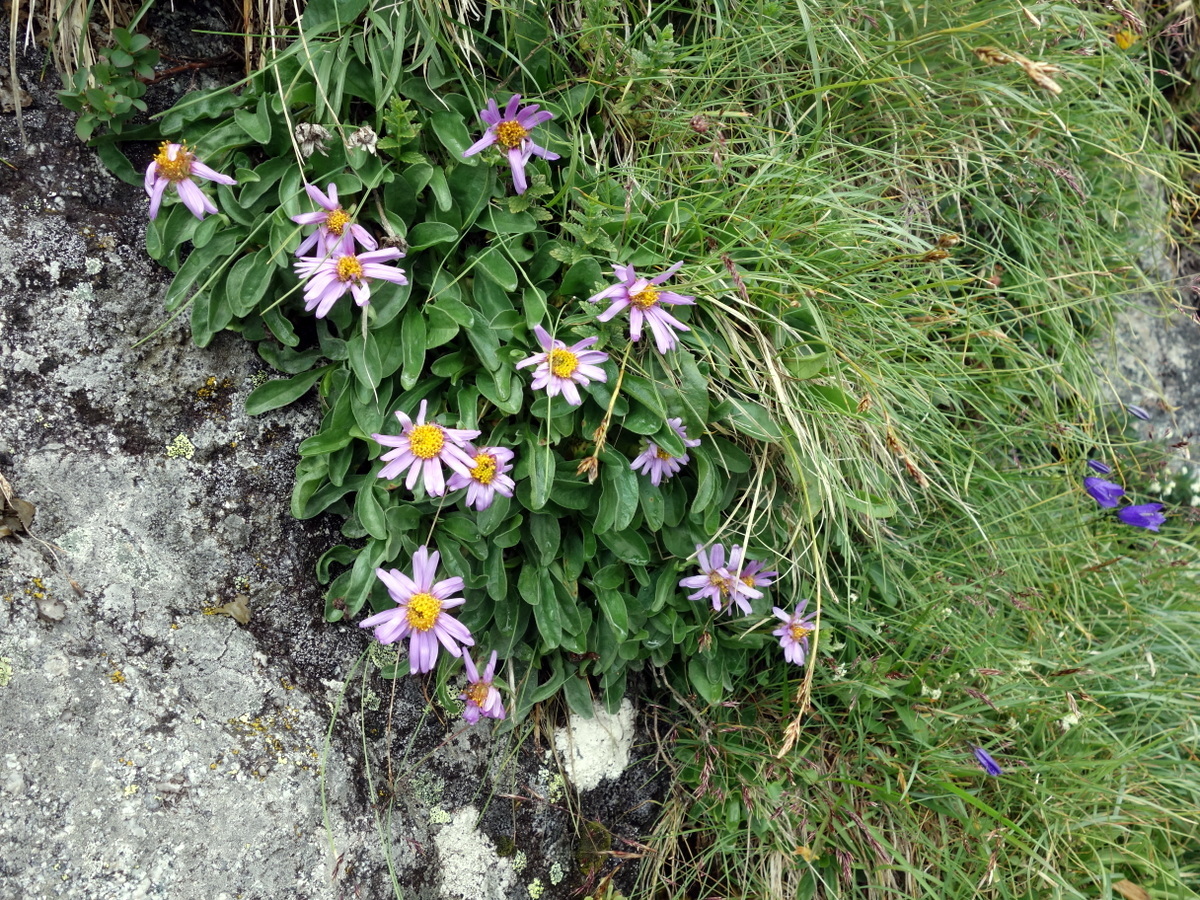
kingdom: Plantae
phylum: Tracheophyta
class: Magnoliopsida
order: Asterales
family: Asteraceae
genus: Aster
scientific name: Aster alpinus
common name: Alpine aster
